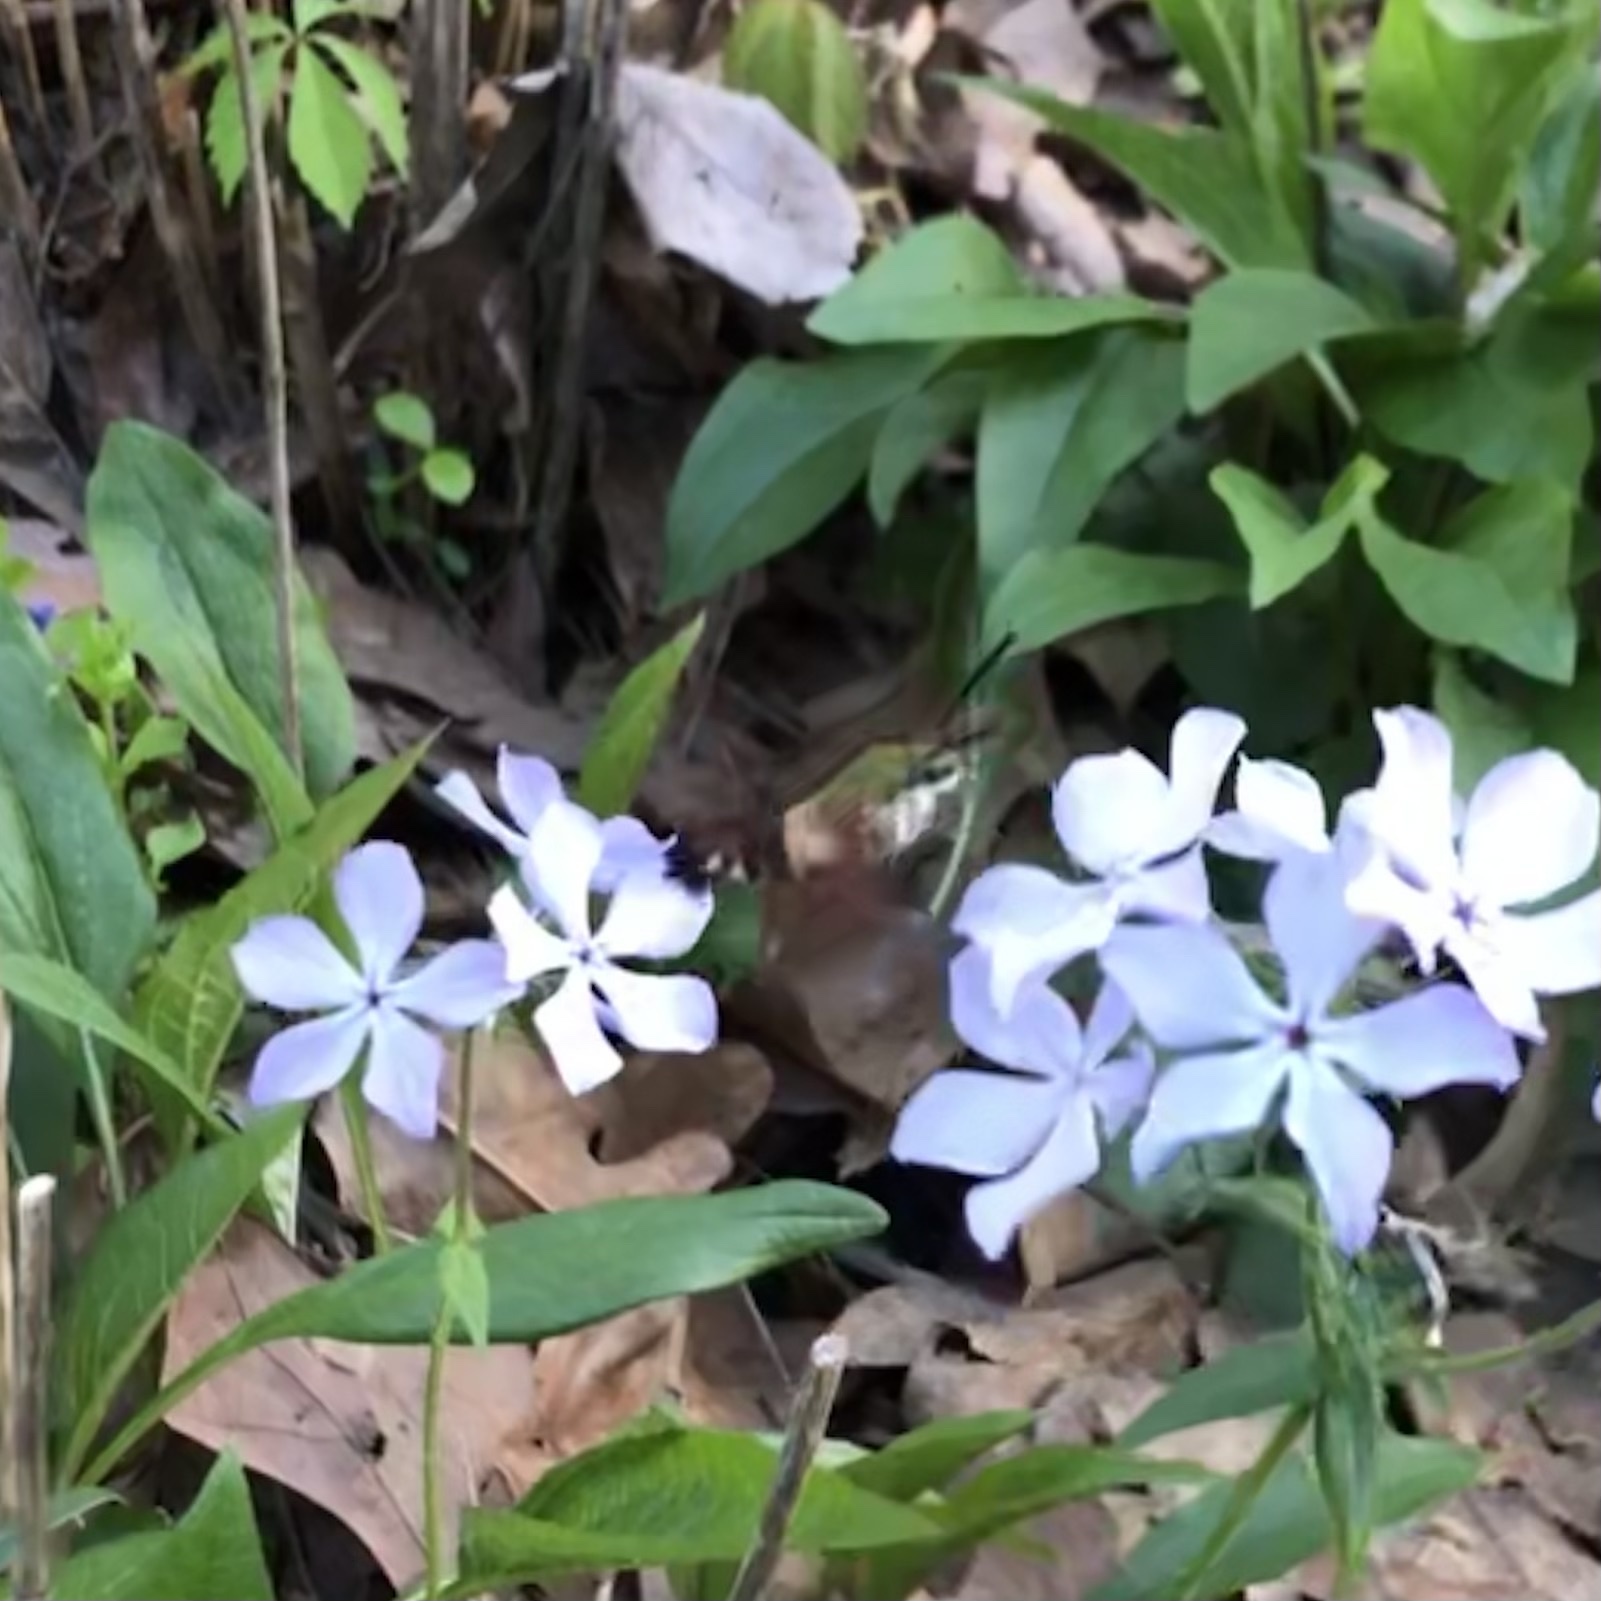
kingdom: Animalia
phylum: Arthropoda
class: Insecta
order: Lepidoptera
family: Sphingidae
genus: Hemaris
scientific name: Hemaris thysbe
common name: Common clear-wing
